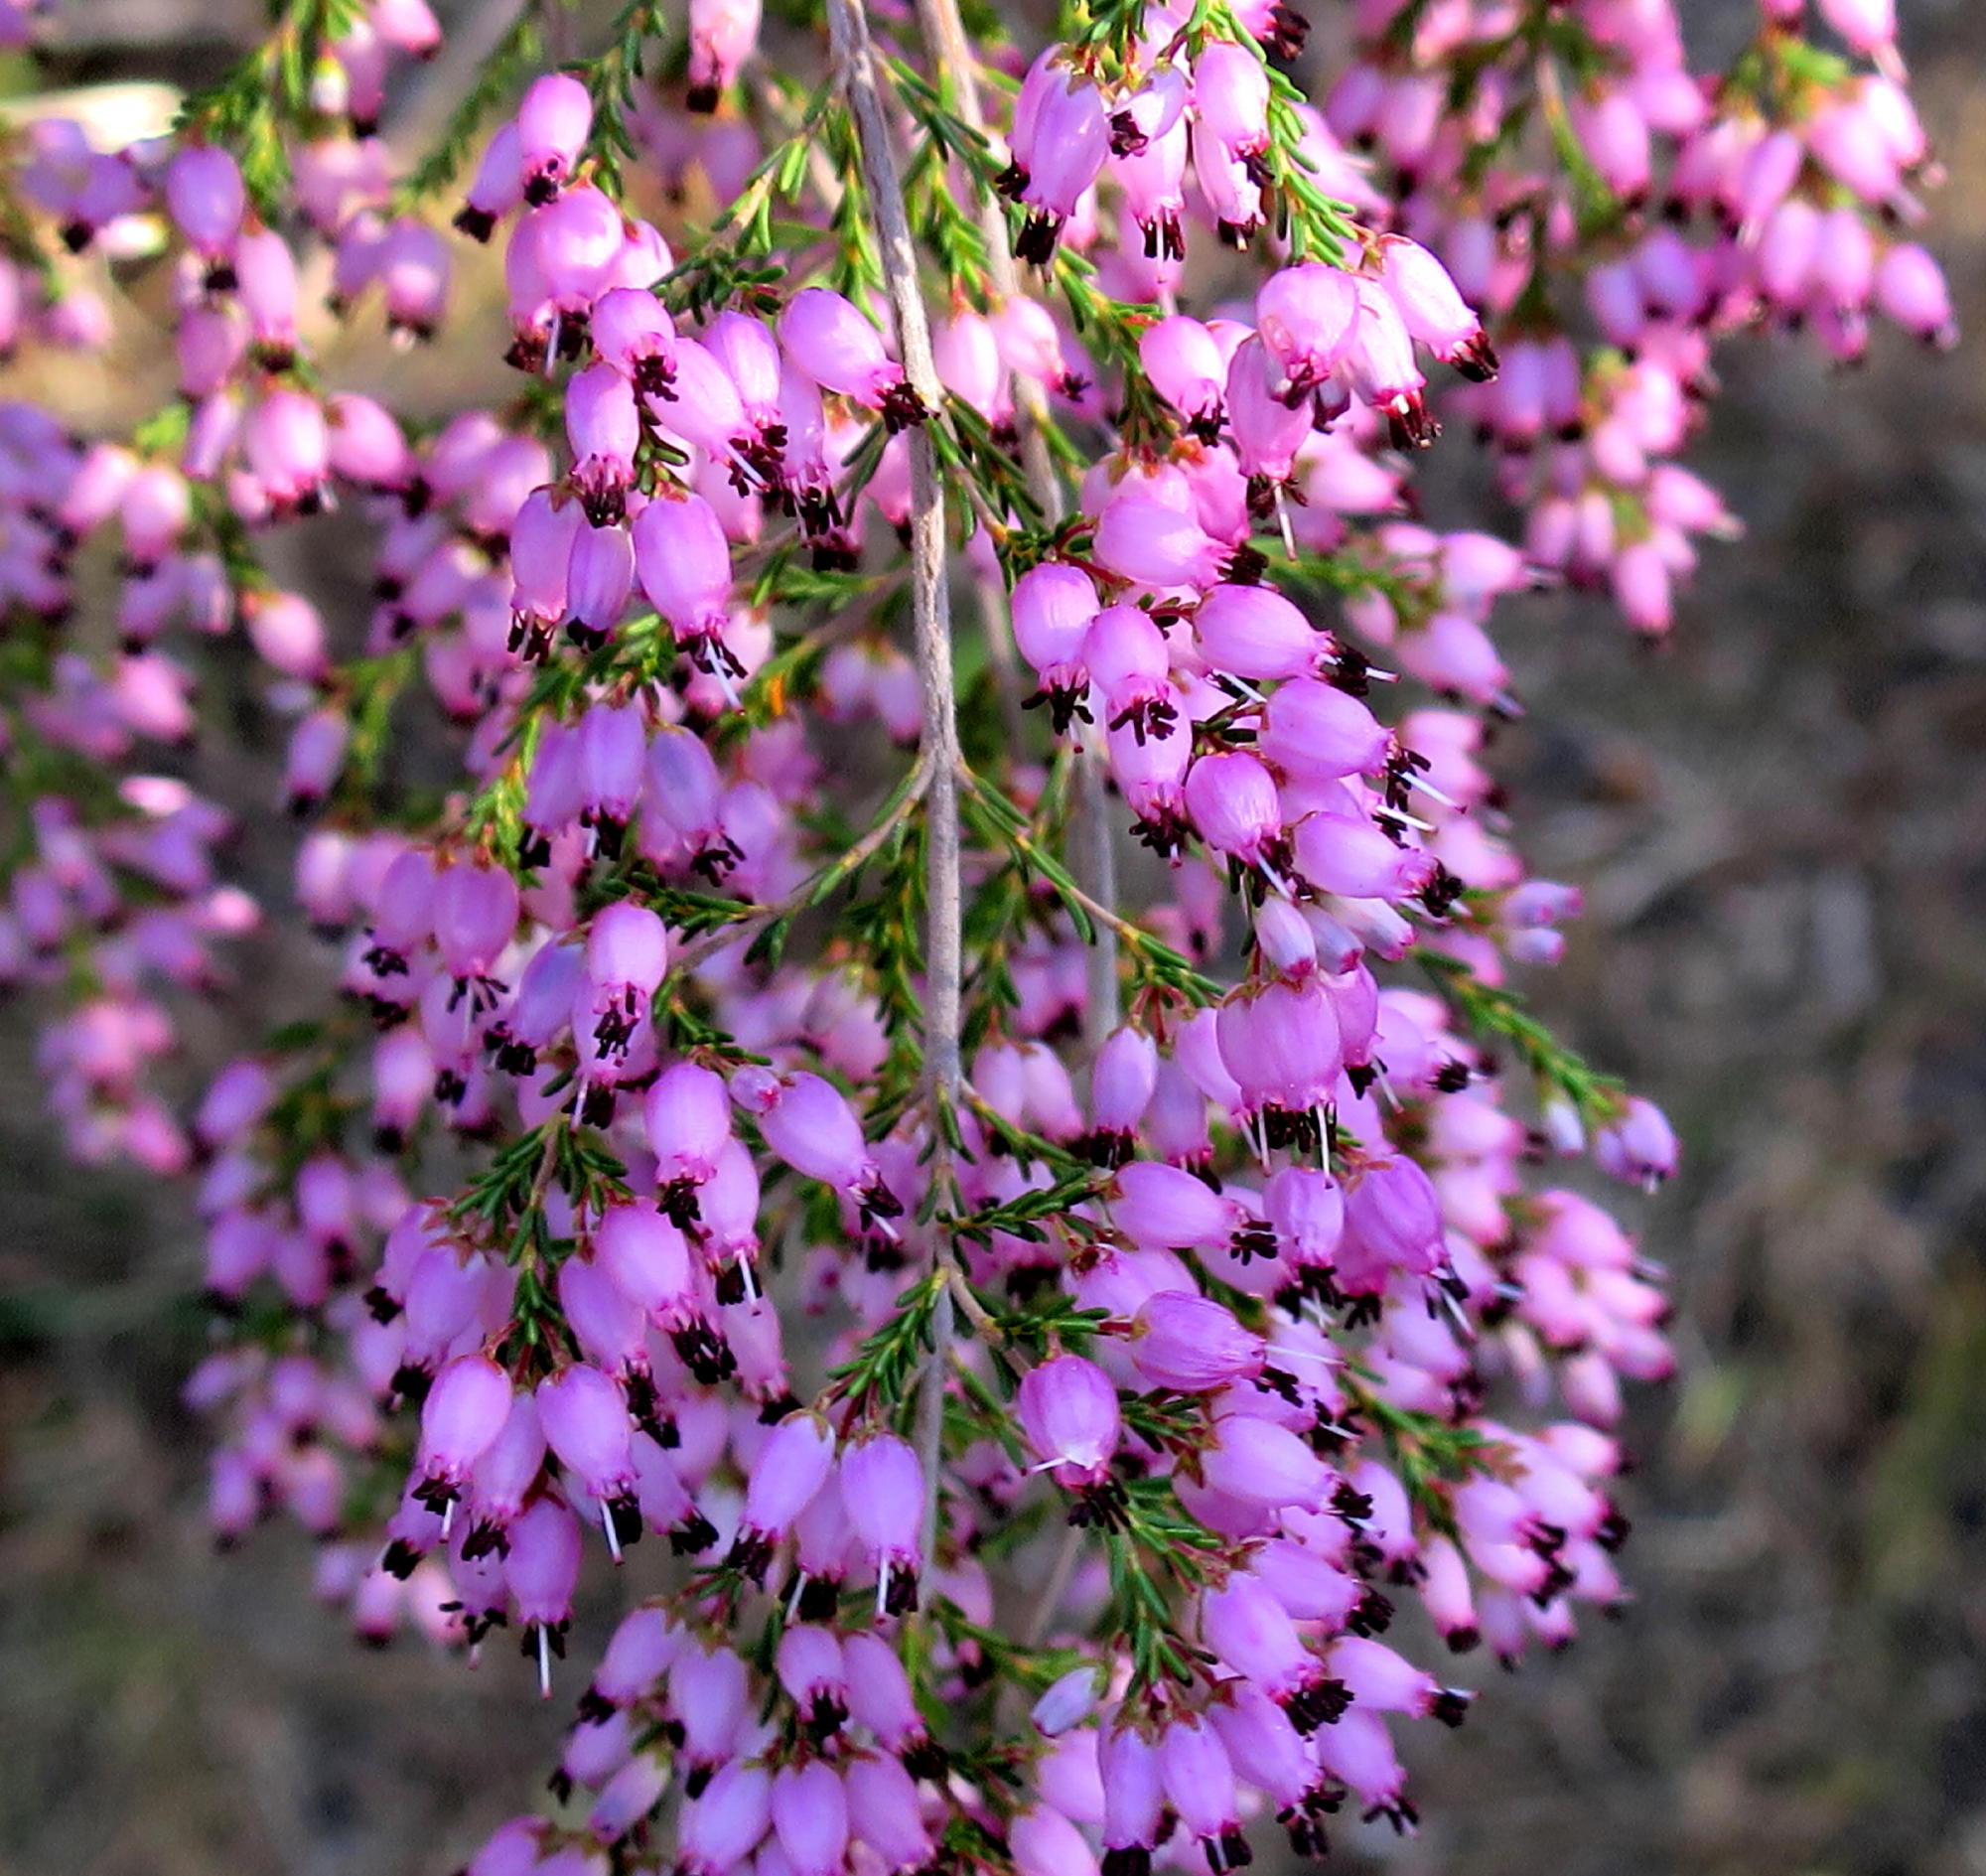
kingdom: Plantae
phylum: Tracheophyta
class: Magnoliopsida
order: Ericales
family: Ericaceae
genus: Erica
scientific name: Erica nutans
